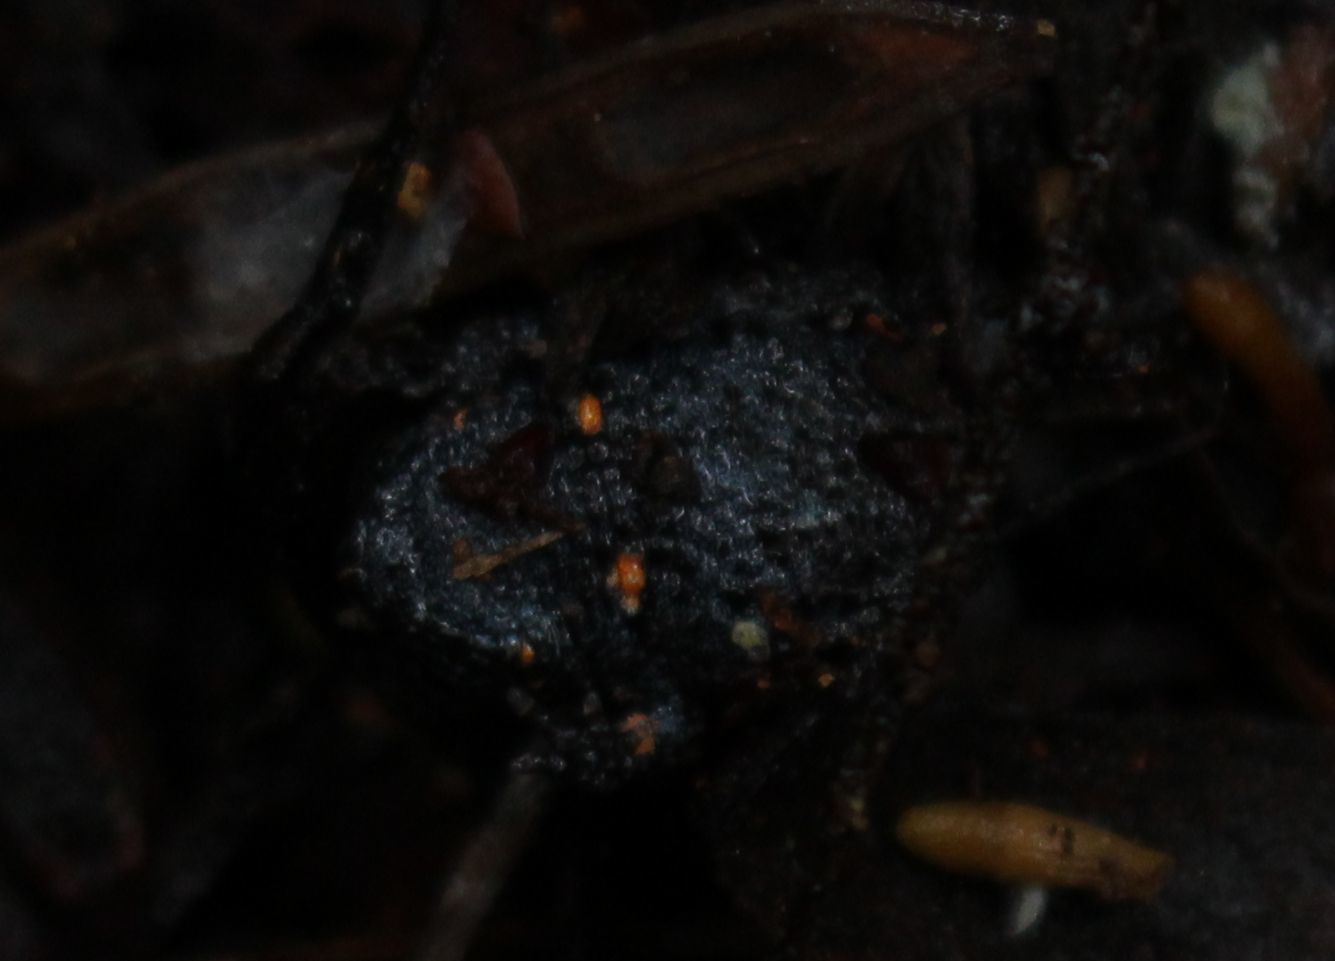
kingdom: Animalia
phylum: Chordata
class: Amphibia
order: Anura
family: Myobatrachidae
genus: Metacrinia
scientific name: Metacrinia nichollsi
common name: Nicholl’s toadlet
